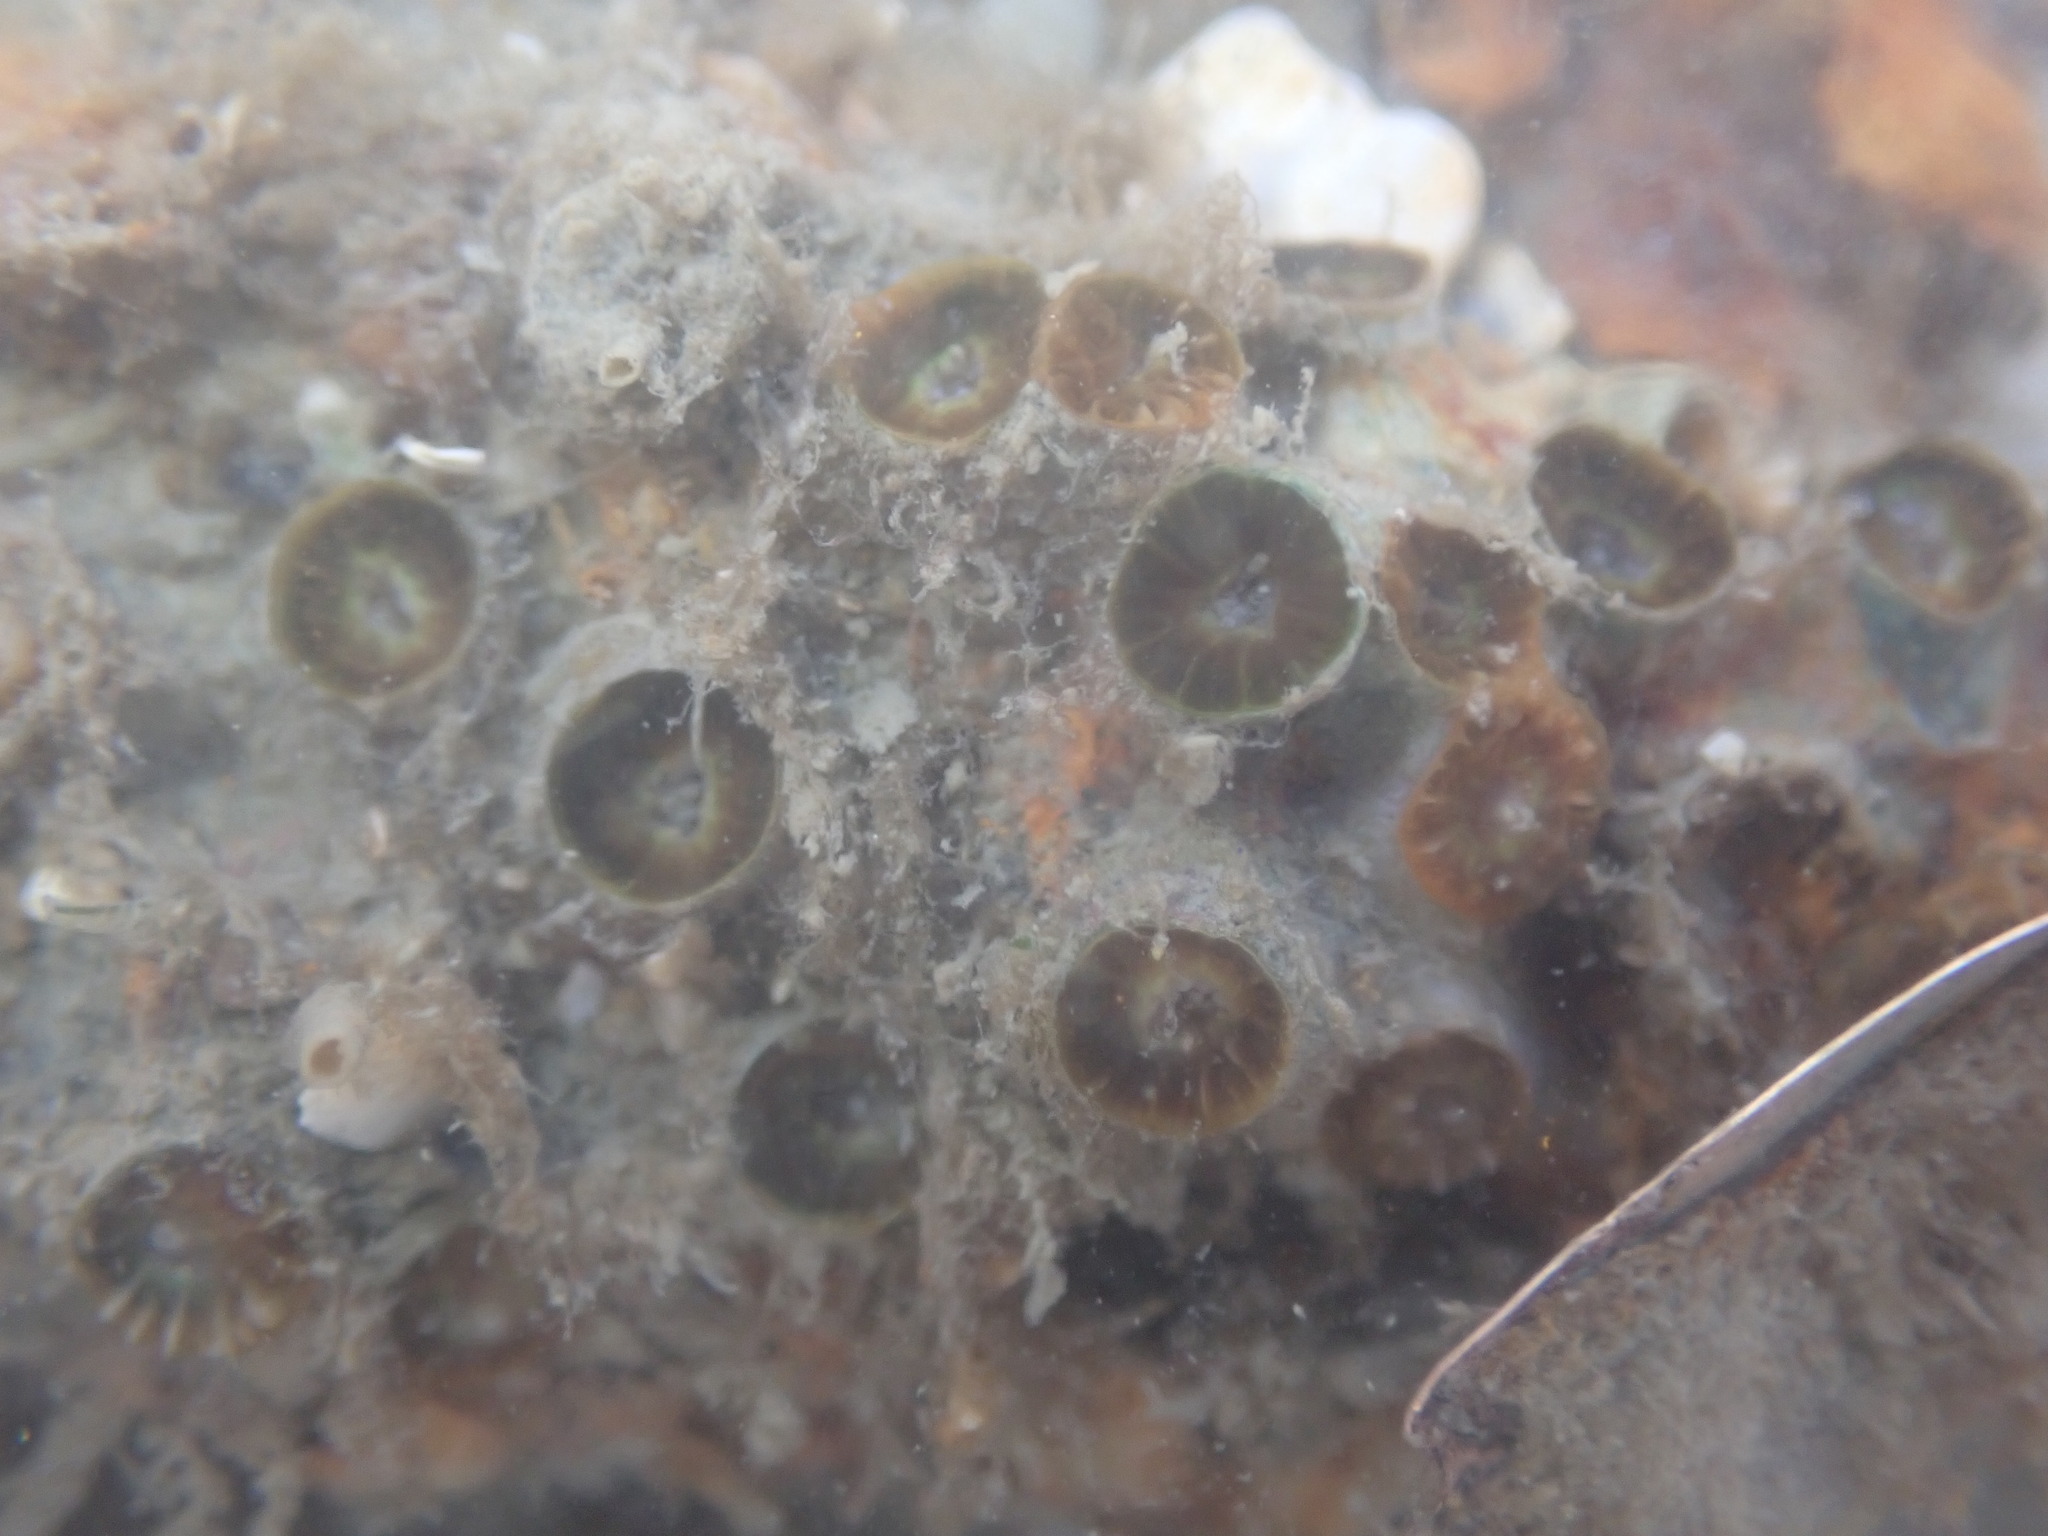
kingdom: Animalia
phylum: Cnidaria
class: Anthozoa
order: Scleractinia
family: Rhizangiidae
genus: Culicia
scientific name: Culicia rubeola
